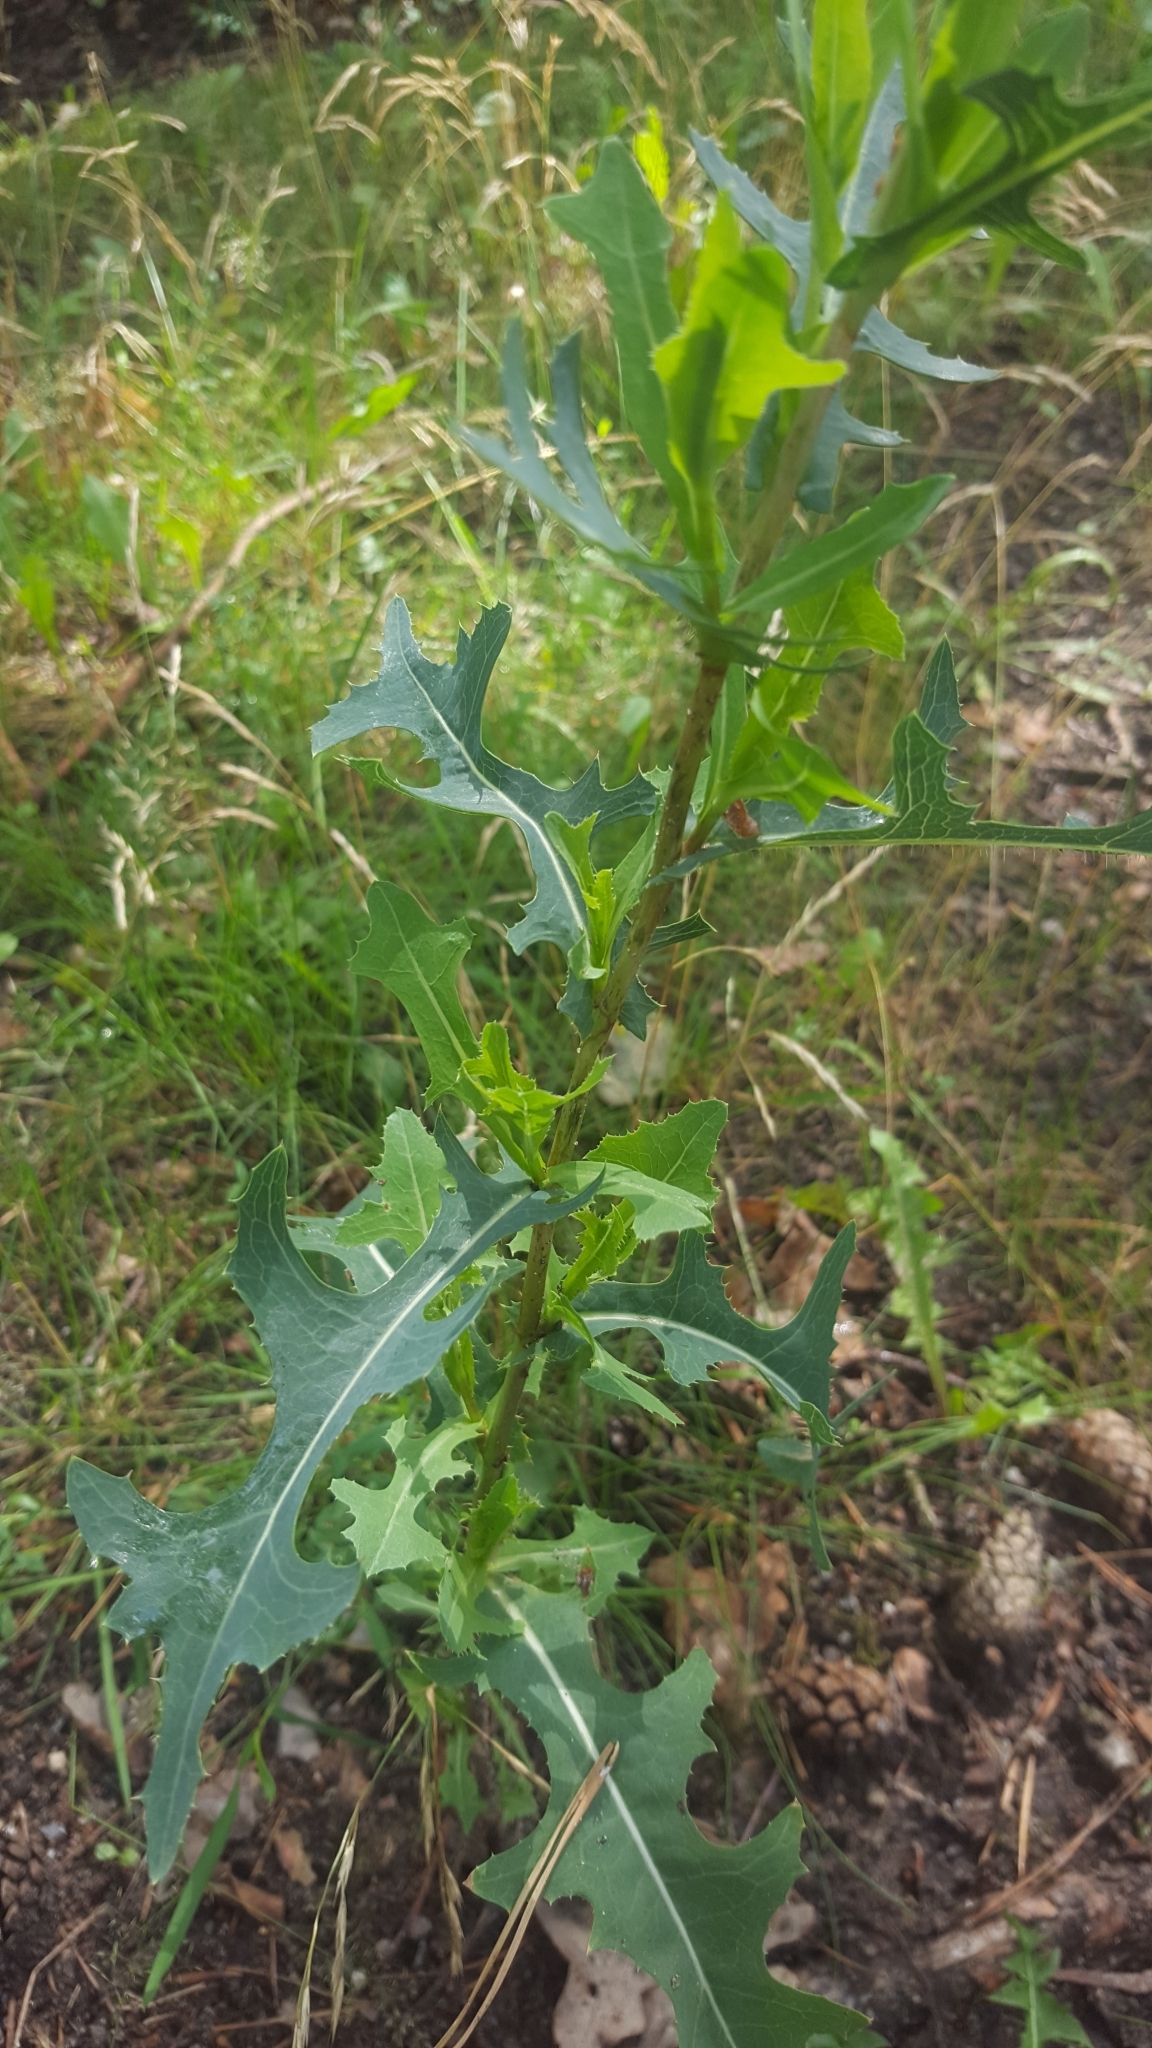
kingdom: Plantae
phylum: Tracheophyta
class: Magnoliopsida
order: Asterales
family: Asteraceae
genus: Lactuca
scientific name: Lactuca serriola
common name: Prickly lettuce
